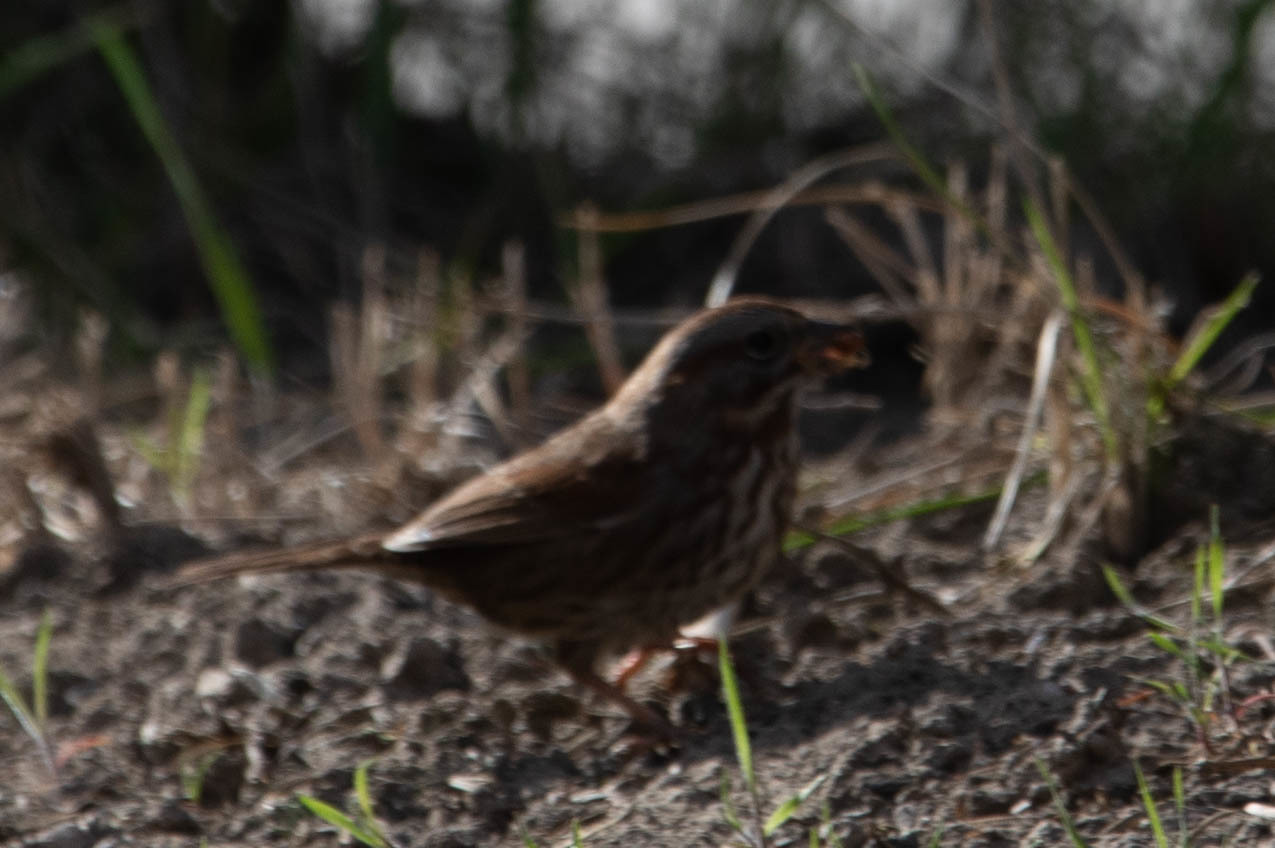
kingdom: Animalia
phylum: Chordata
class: Aves
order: Passeriformes
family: Passerellidae
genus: Melospiza
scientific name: Melospiza melodia
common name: Song sparrow
